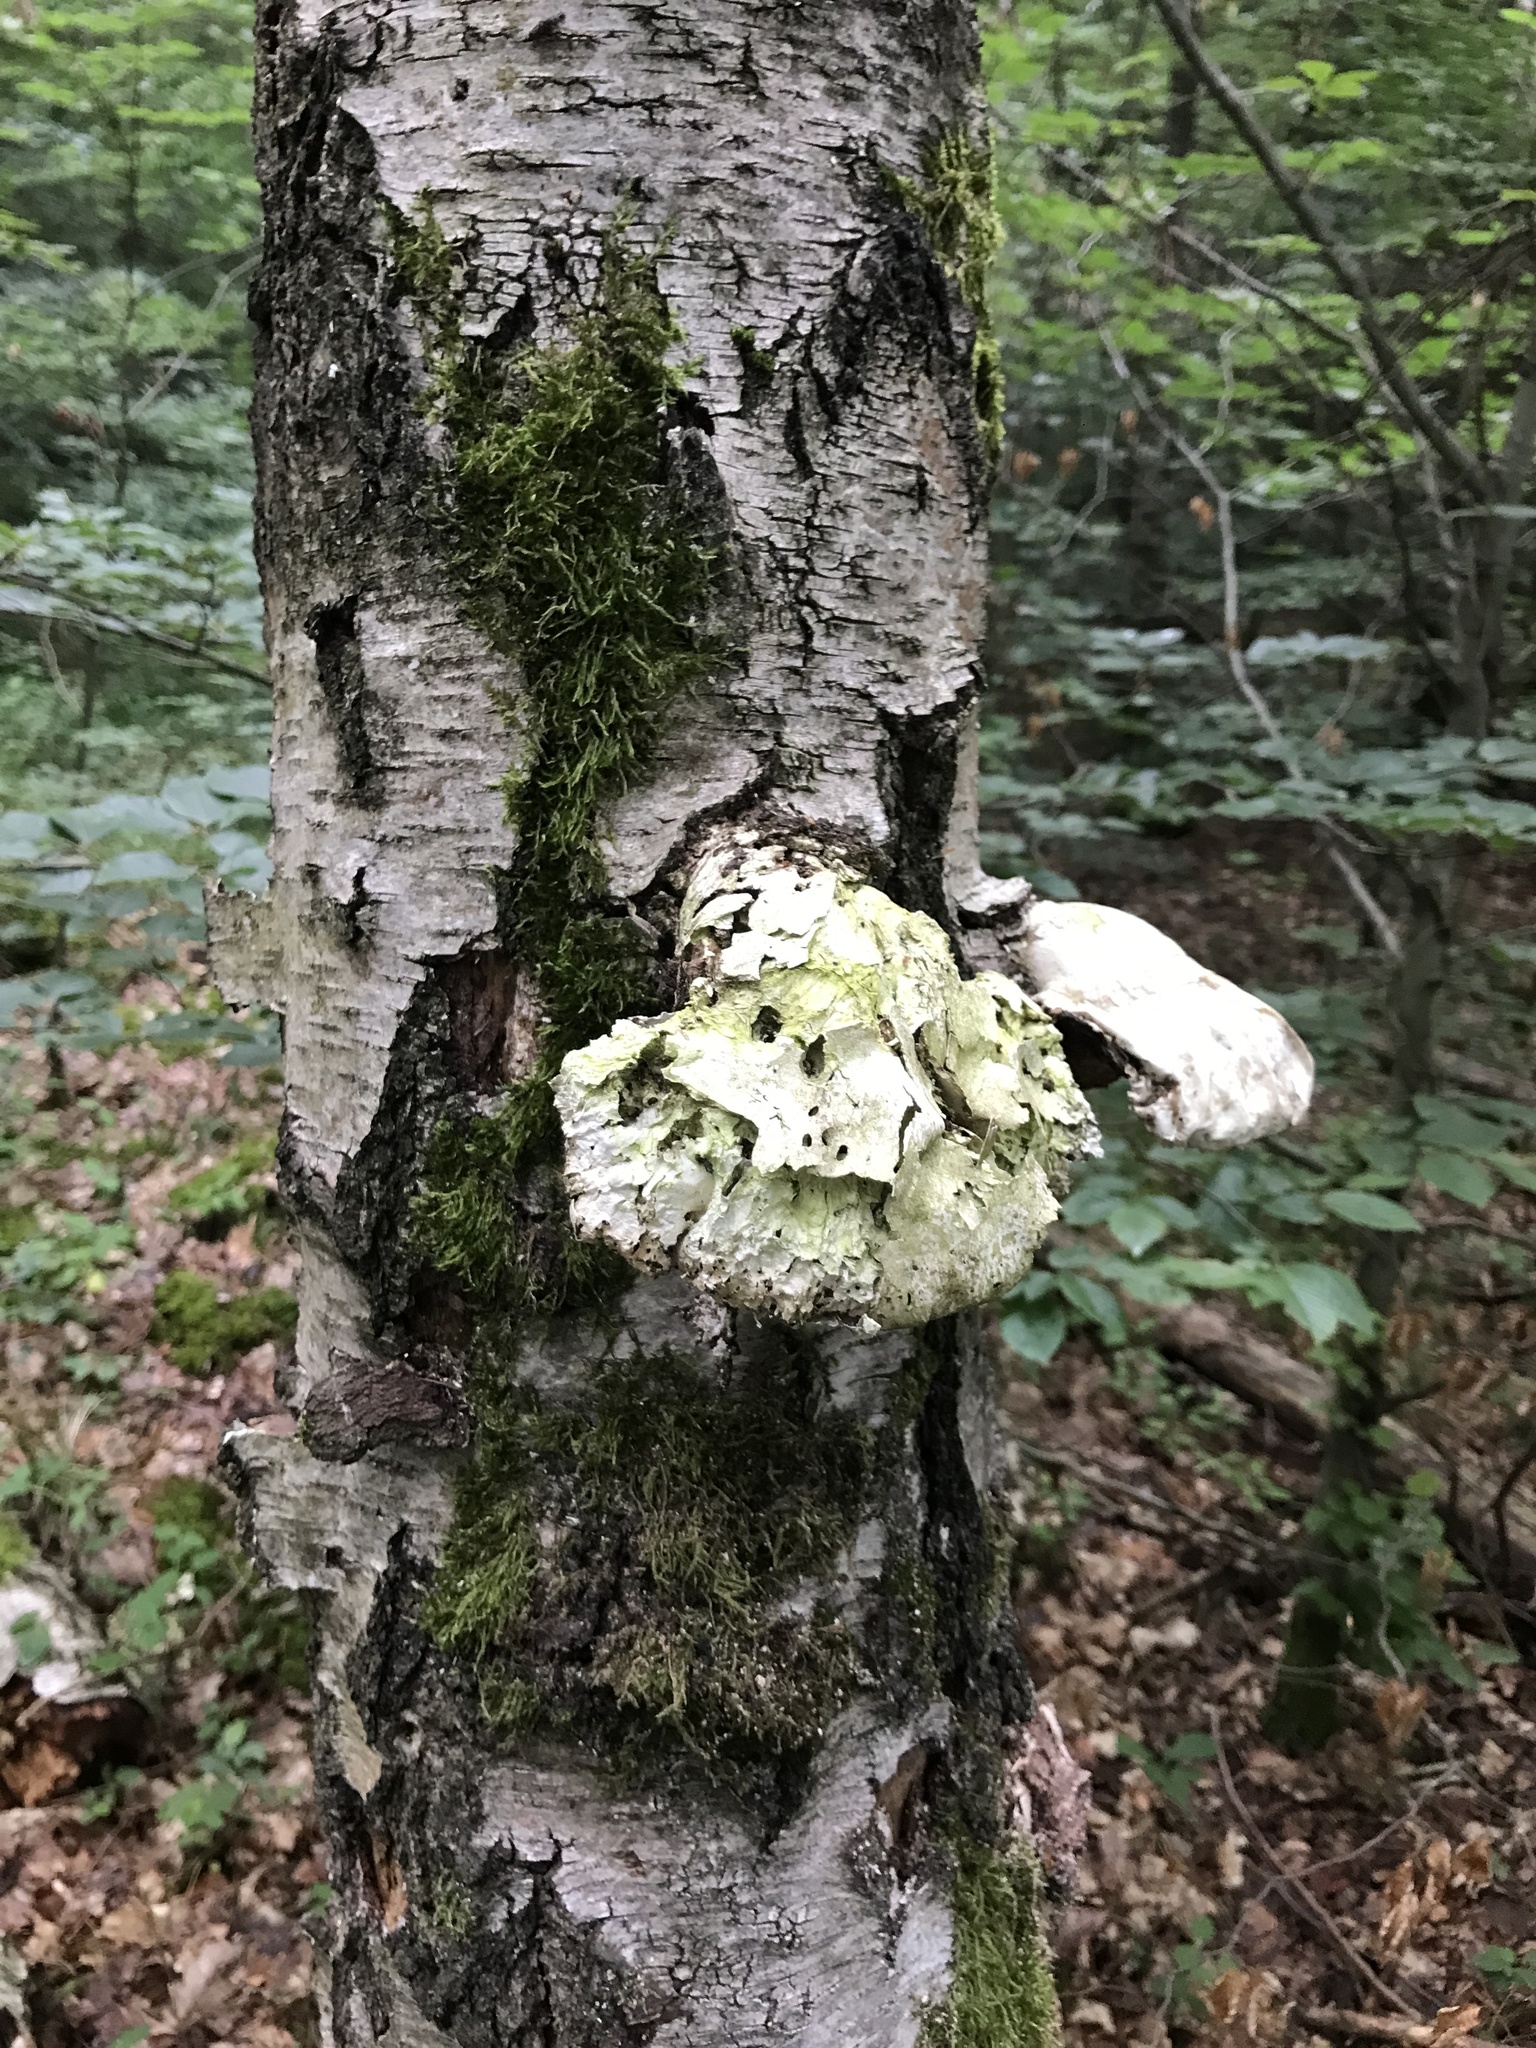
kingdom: Fungi
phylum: Basidiomycota
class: Agaricomycetes
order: Polyporales
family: Fomitopsidaceae
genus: Fomitopsis
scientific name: Fomitopsis betulina
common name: Birch polypore
